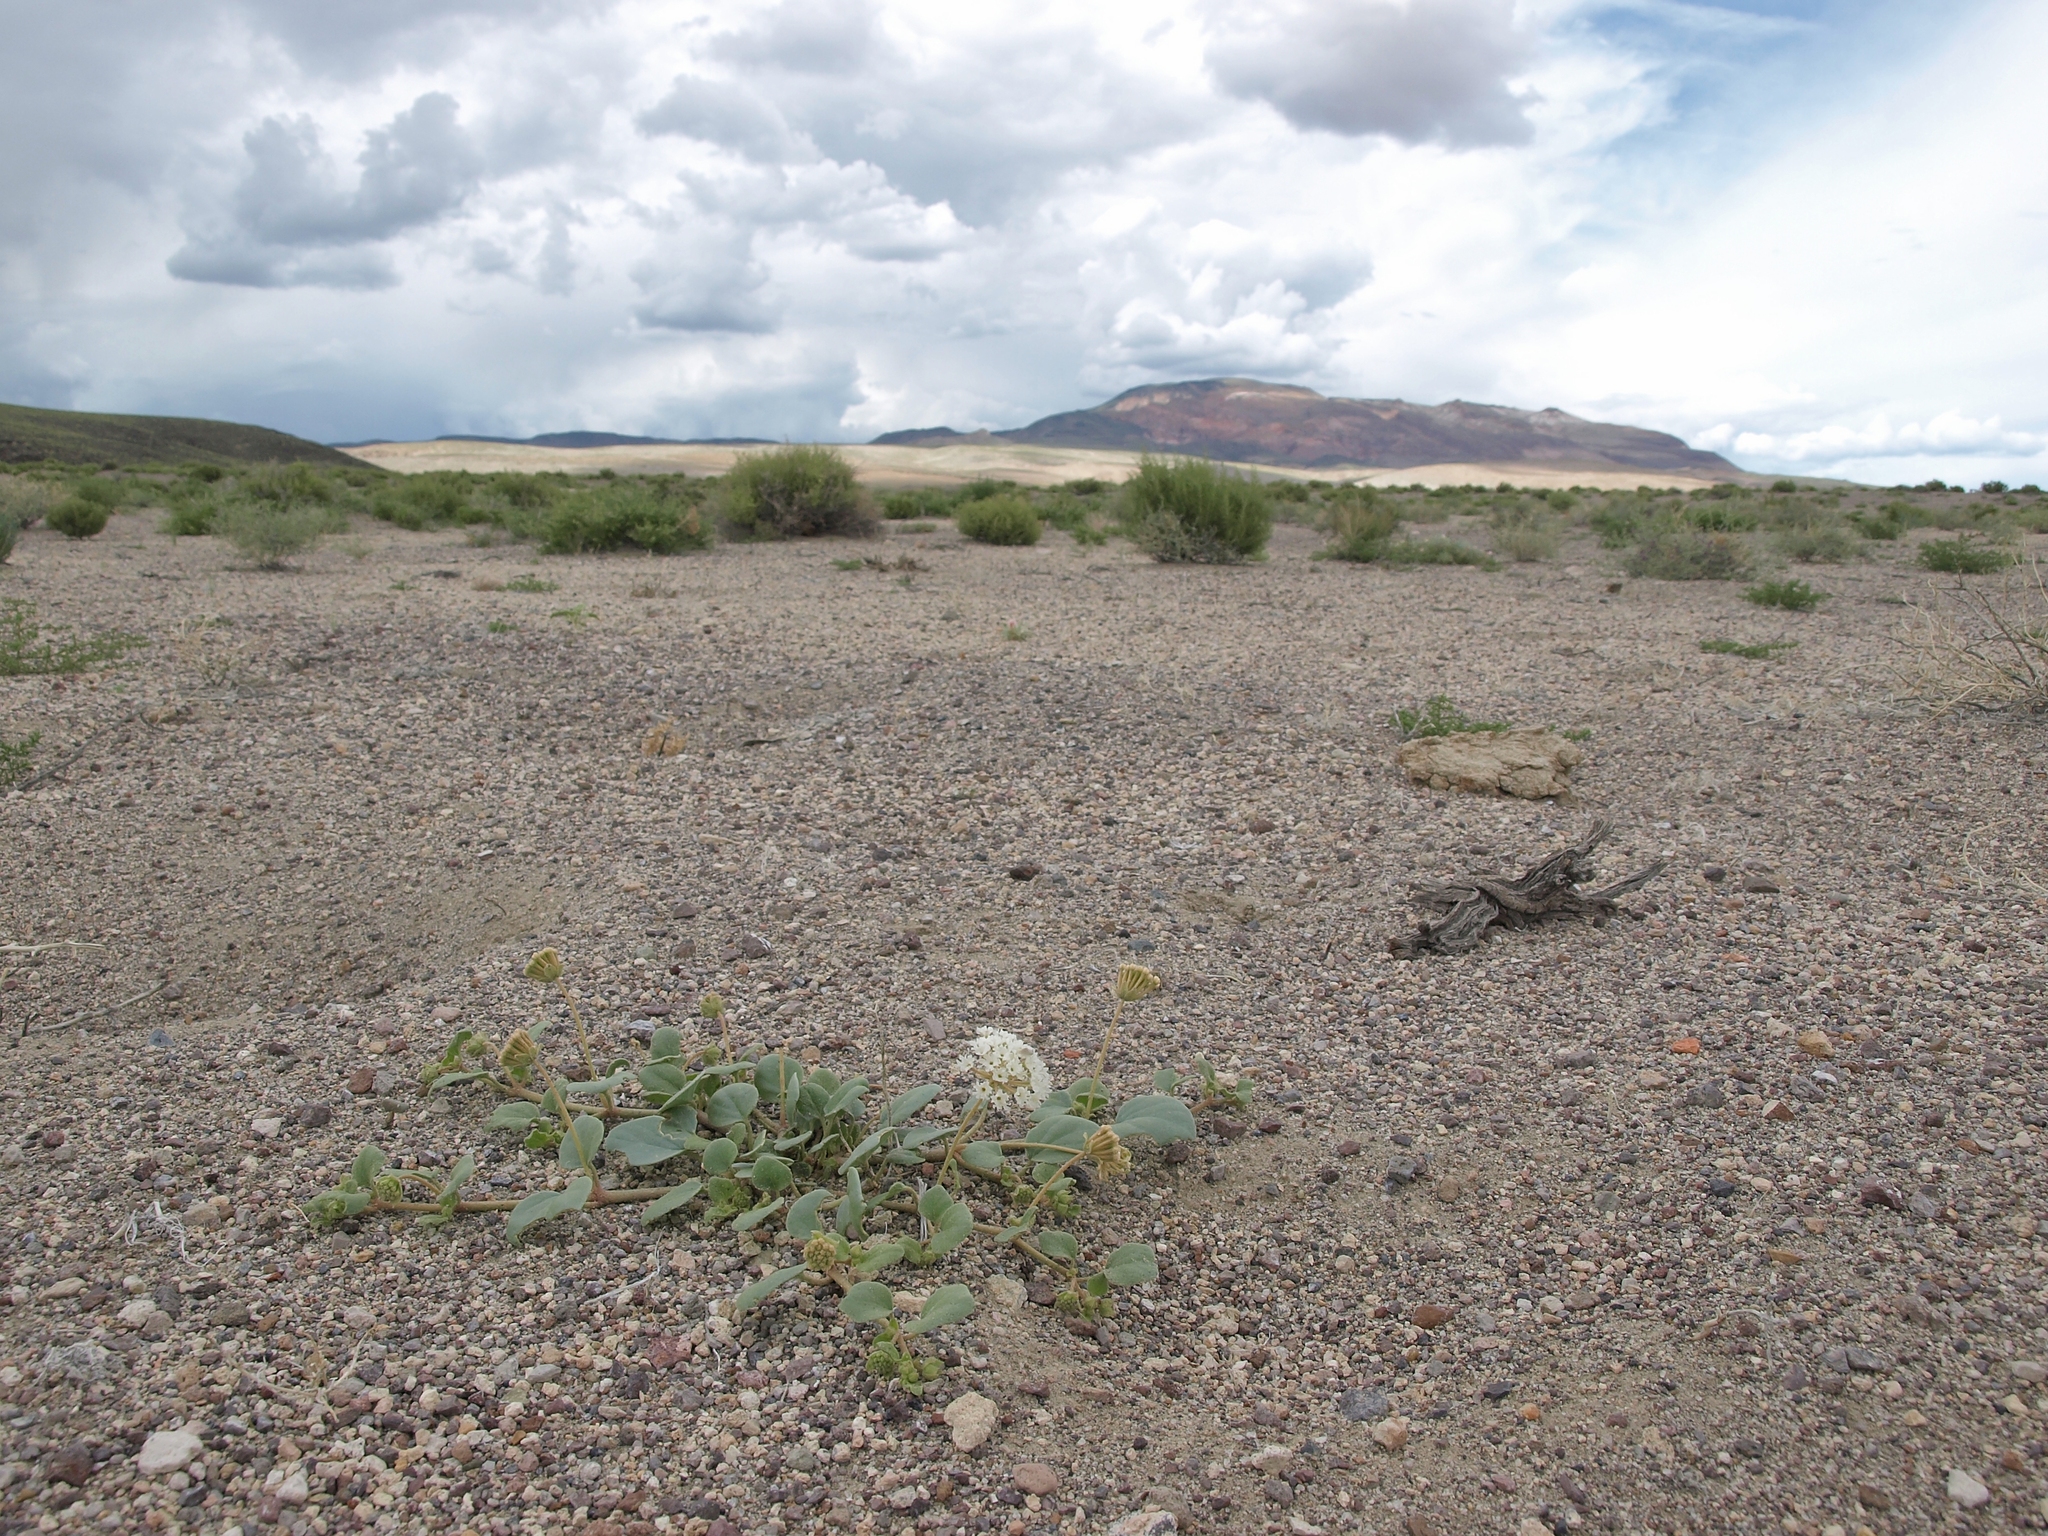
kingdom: Plantae
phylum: Tracheophyta
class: Magnoliopsida
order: Caryophyllales
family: Nyctaginaceae
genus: Abronia
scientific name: Abronia turbinata
